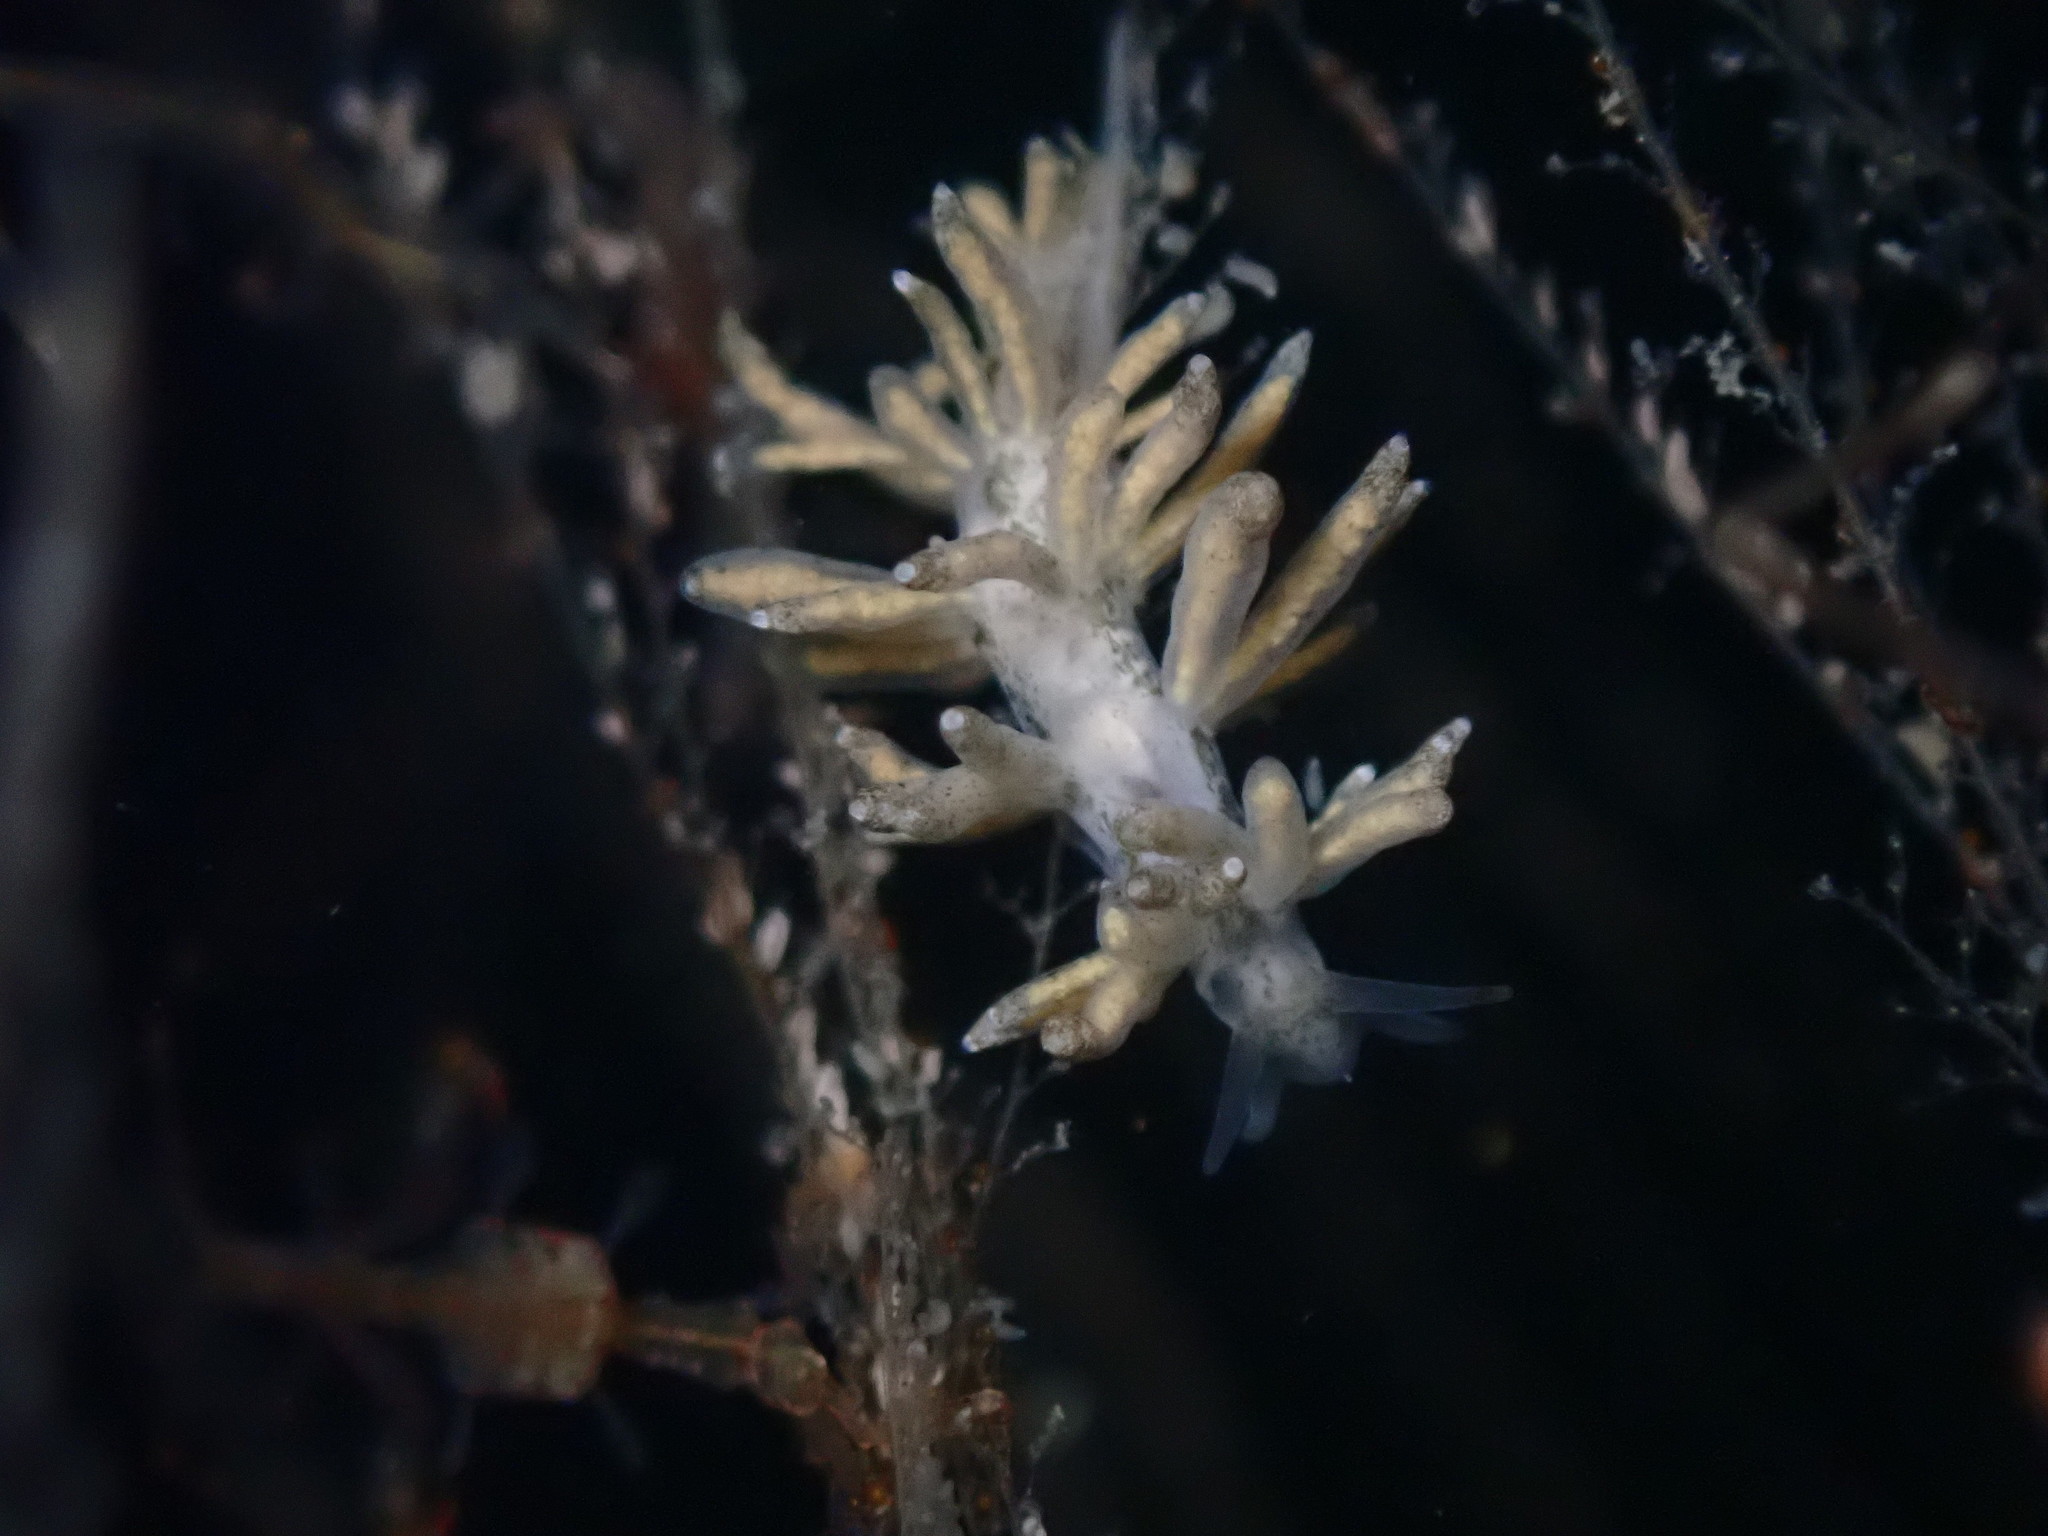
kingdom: Animalia
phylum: Mollusca
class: Gastropoda
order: Nudibranchia
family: Eubranchidae
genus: Eubranchus
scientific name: Eubranchus rustyus
